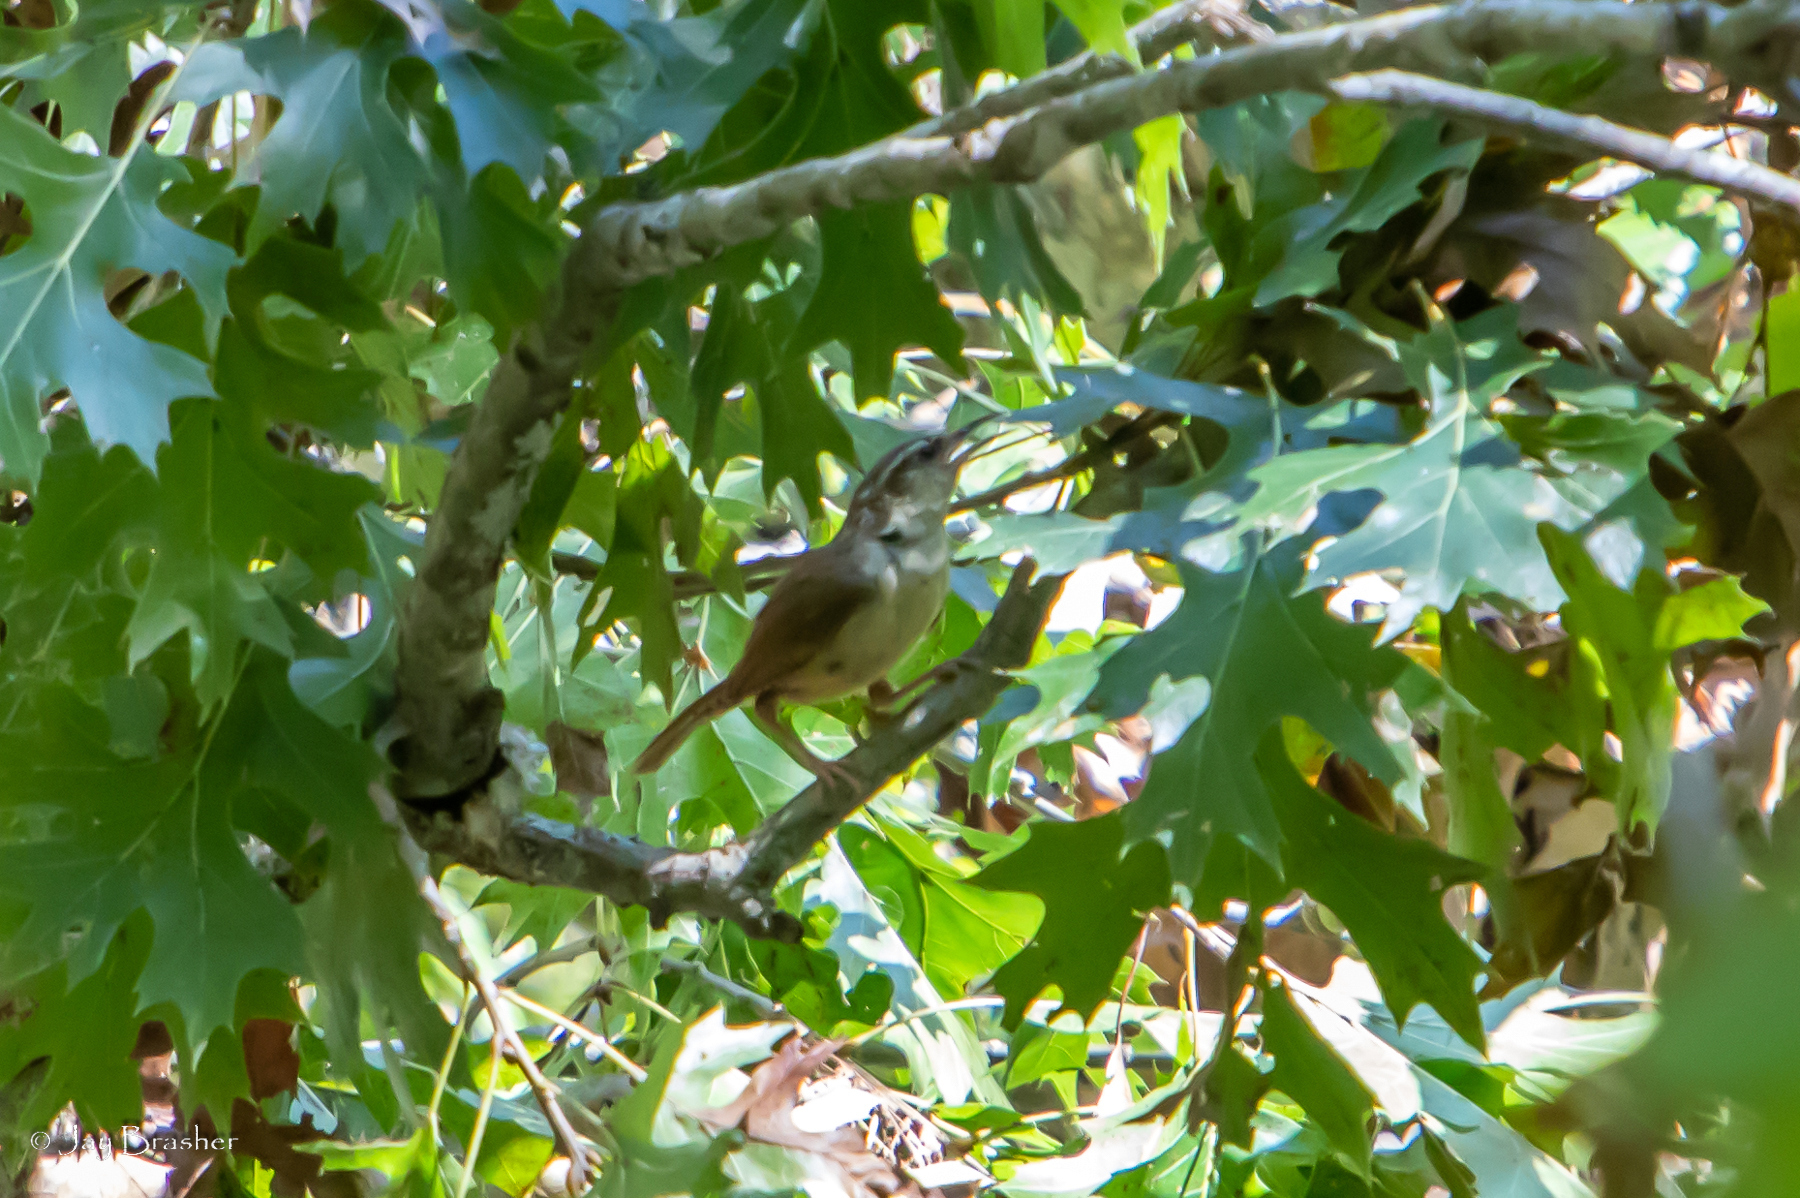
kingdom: Animalia
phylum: Chordata
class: Aves
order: Passeriformes
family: Troglodytidae
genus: Thryothorus
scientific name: Thryothorus ludovicianus
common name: Carolina wren
